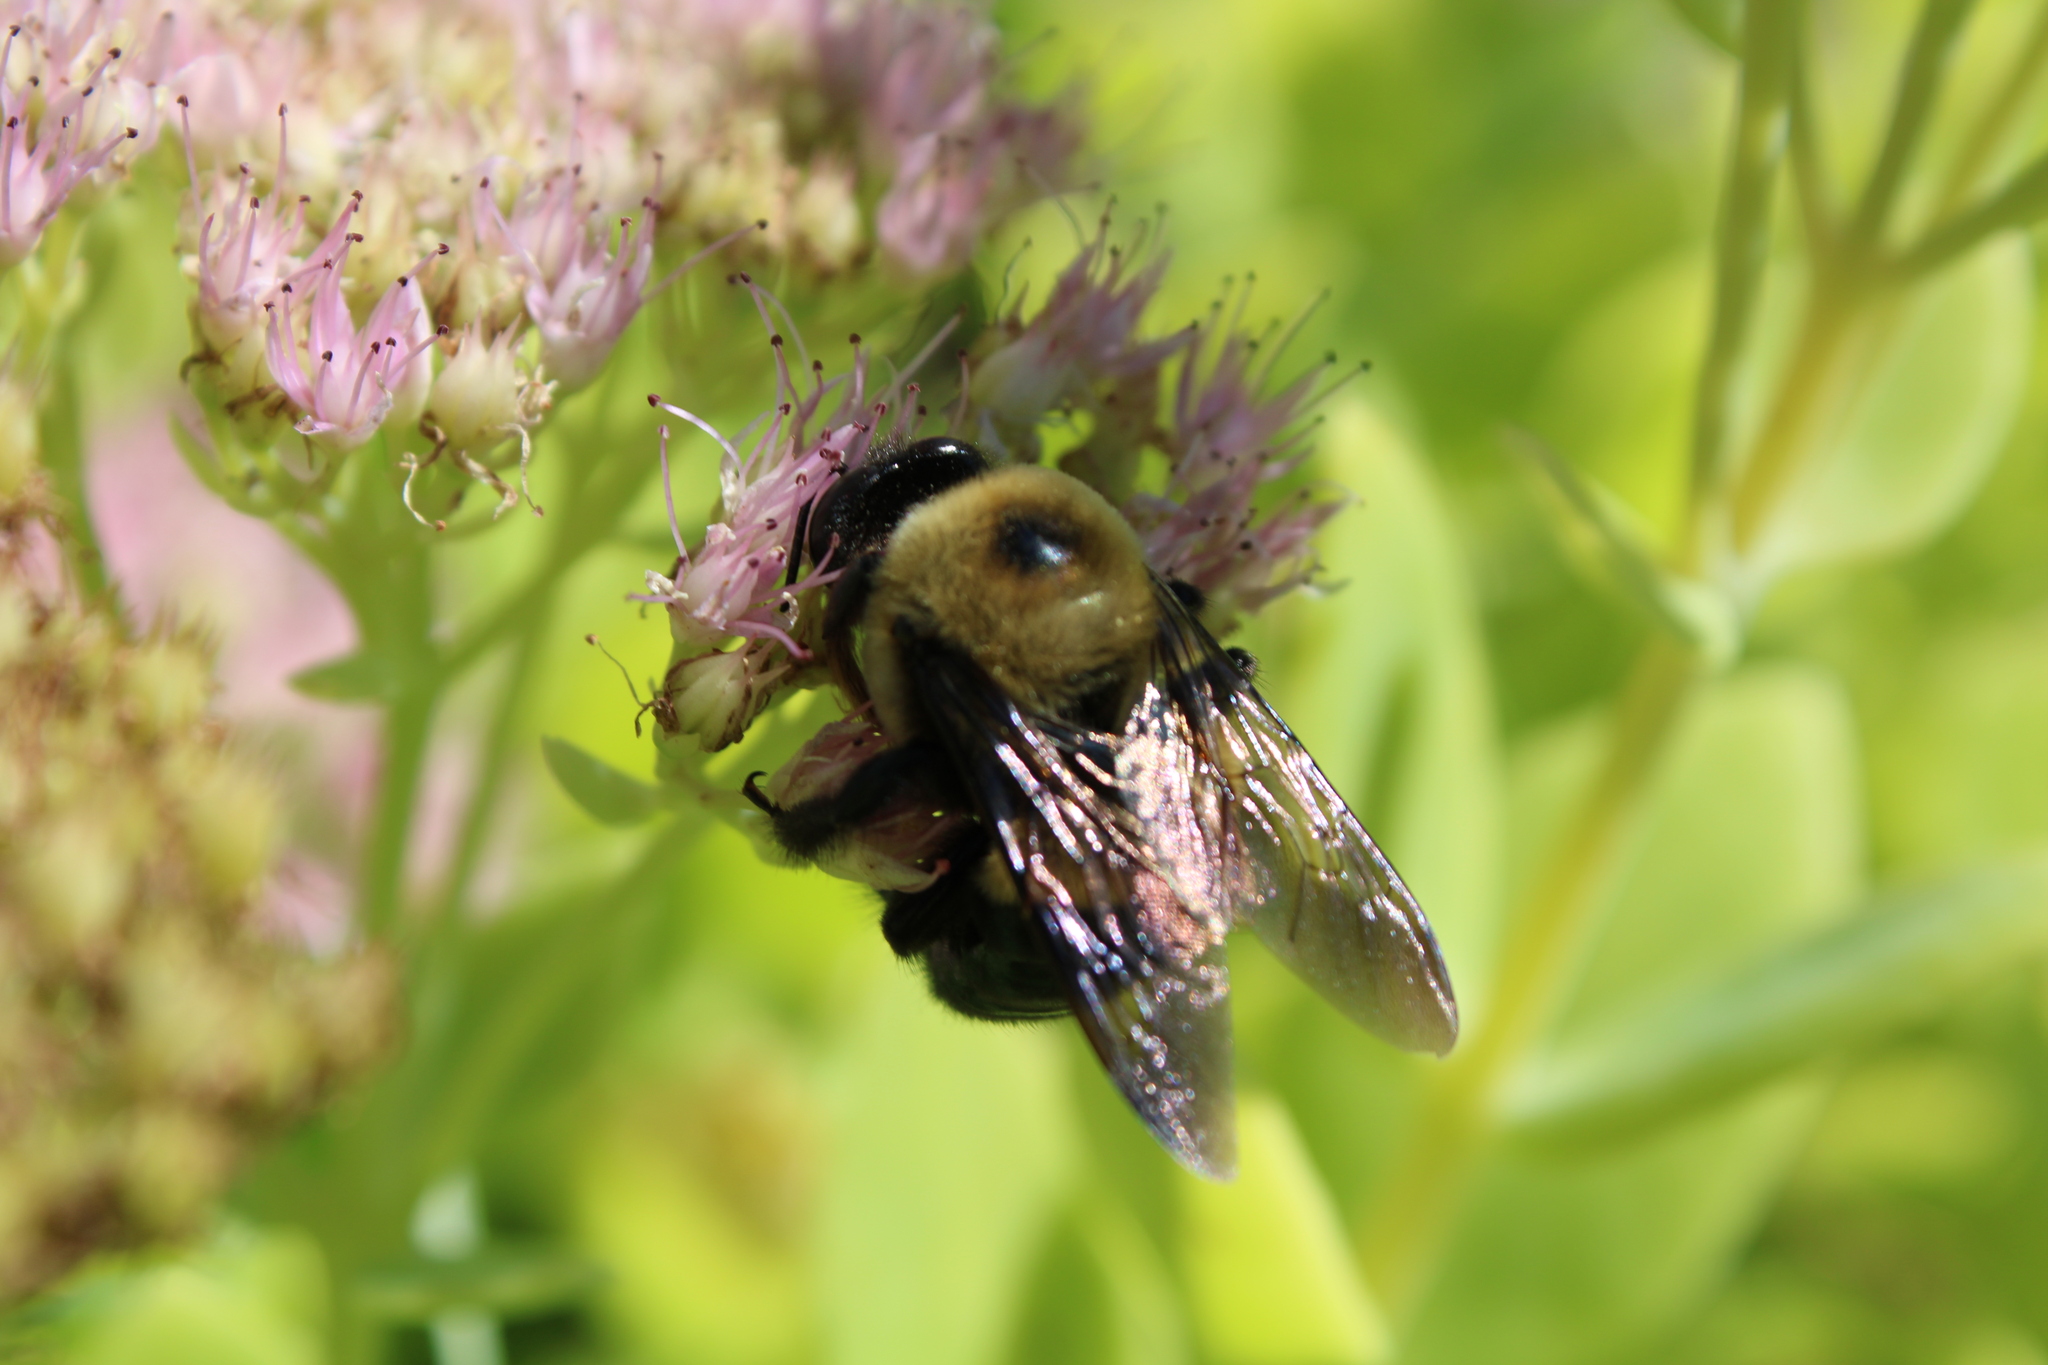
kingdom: Animalia
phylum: Arthropoda
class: Insecta
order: Hymenoptera
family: Apidae
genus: Xylocopa
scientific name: Xylocopa virginica
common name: Carpenter bee
